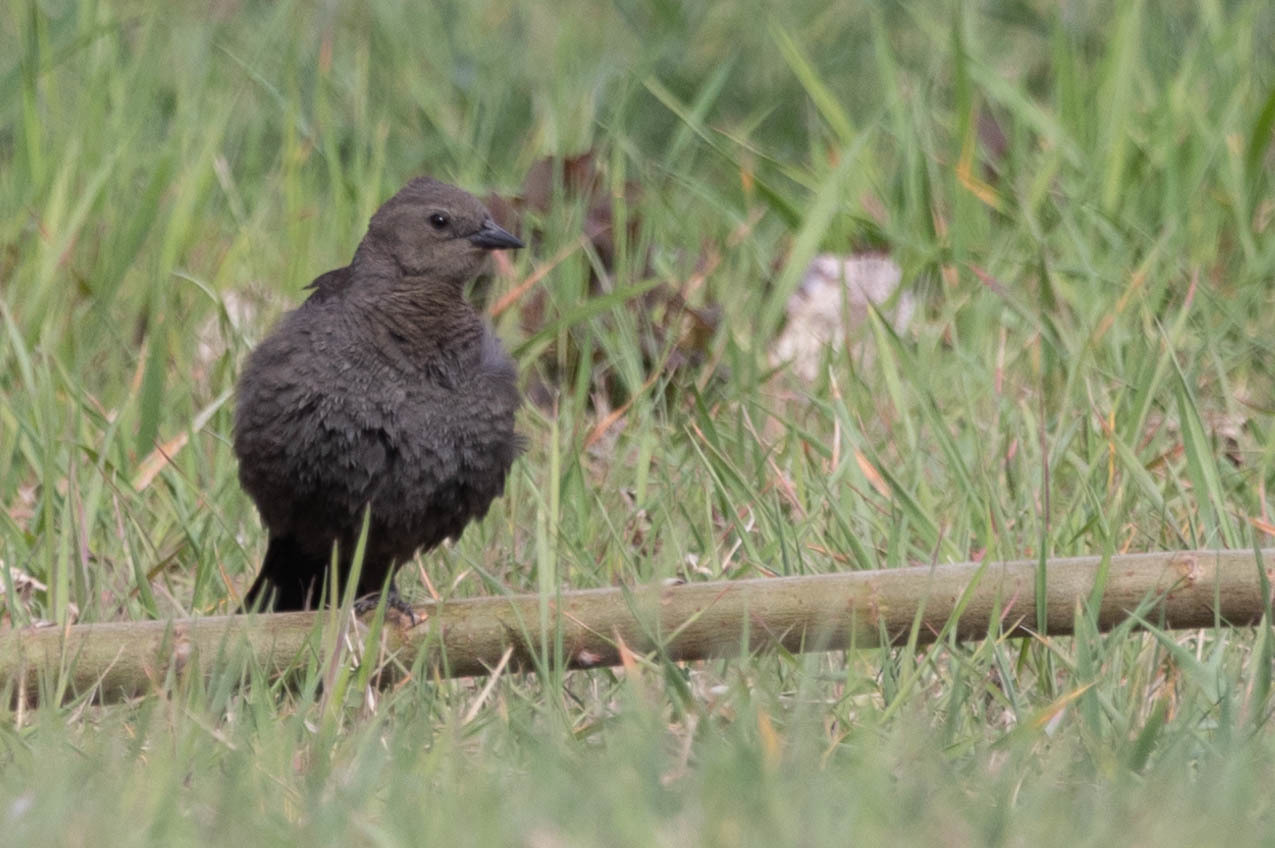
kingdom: Animalia
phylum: Chordata
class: Aves
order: Passeriformes
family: Icteridae
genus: Euphagus
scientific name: Euphagus cyanocephalus
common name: Brewer's blackbird
